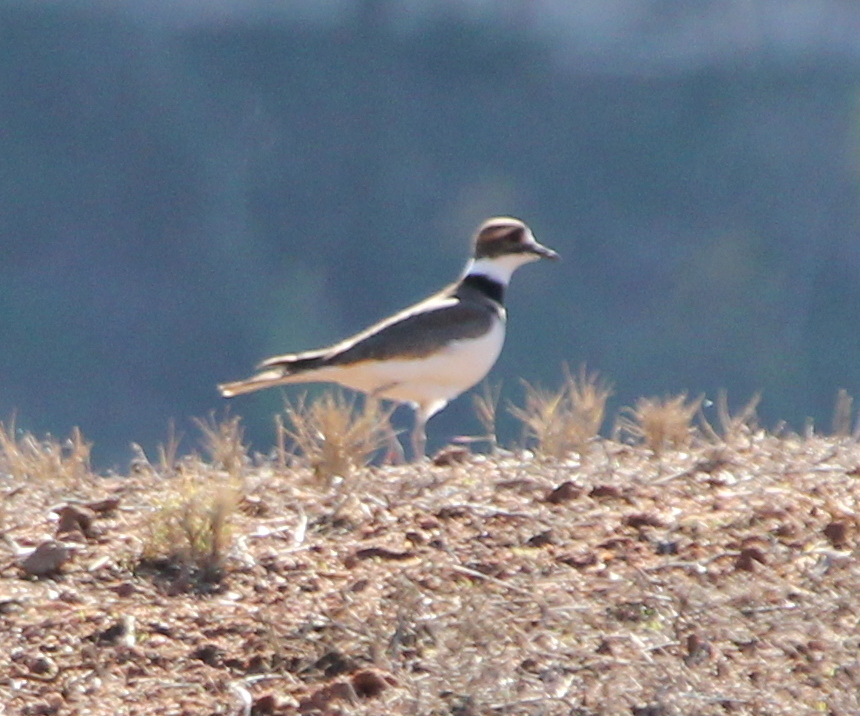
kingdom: Animalia
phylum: Chordata
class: Aves
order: Charadriiformes
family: Charadriidae
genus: Charadrius
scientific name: Charadrius vociferus
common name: Killdeer
